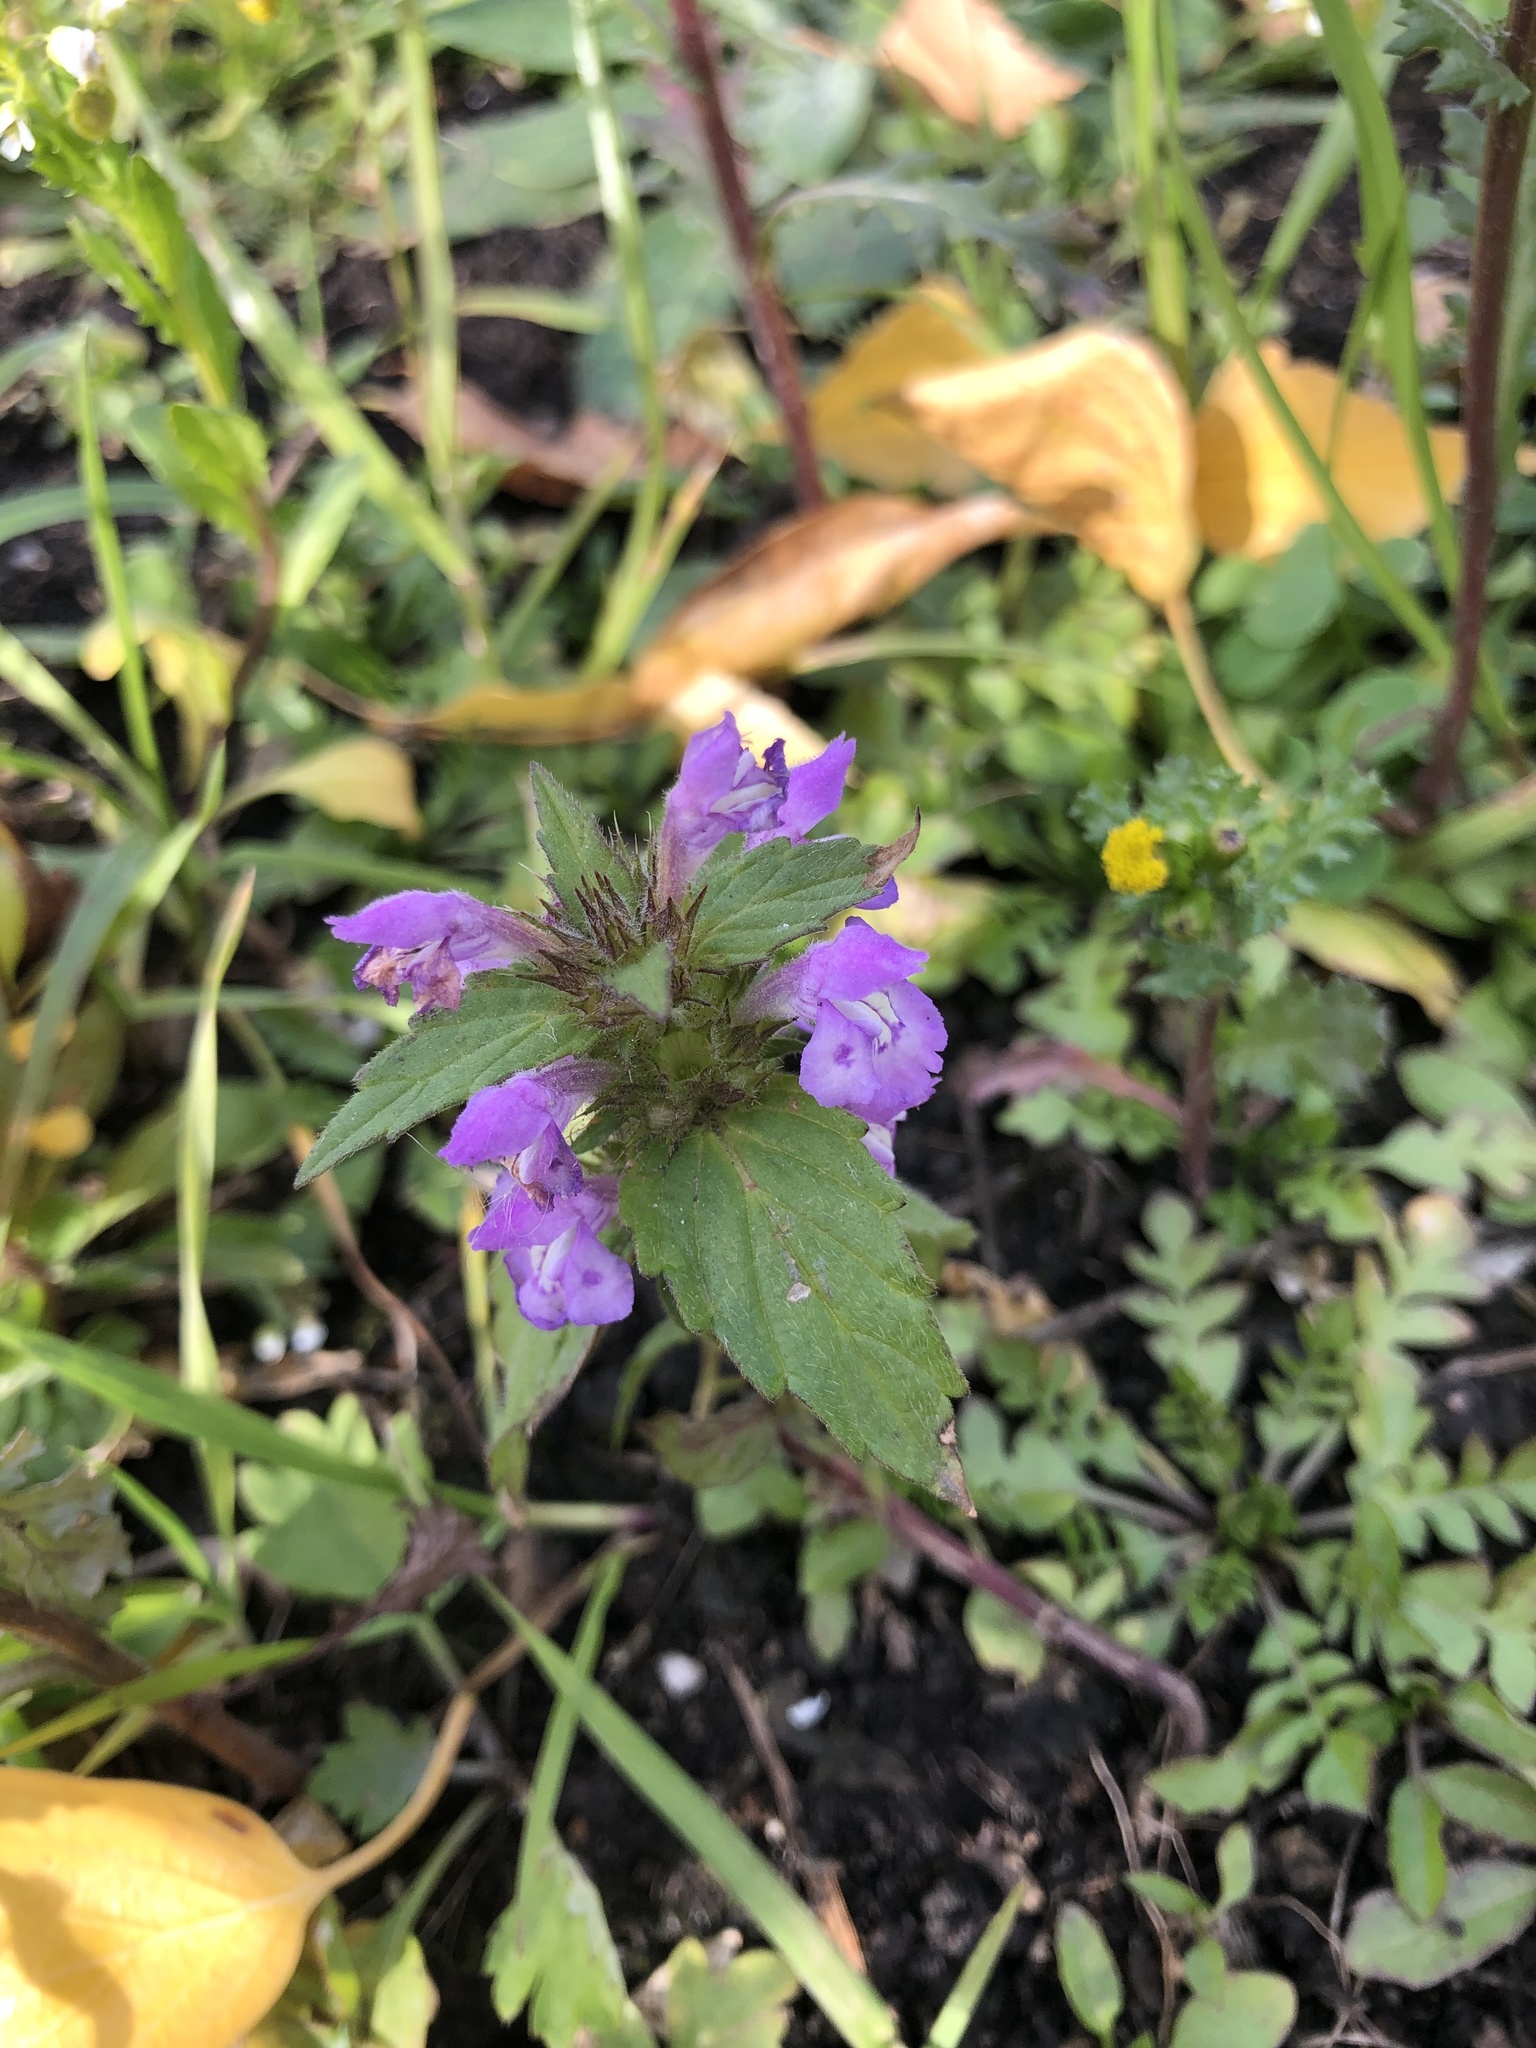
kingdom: Plantae
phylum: Tracheophyta
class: Magnoliopsida
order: Lamiales
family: Lamiaceae
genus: Galeopsis
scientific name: Galeopsis ladanum
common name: Broad-leaved hemp-nettle
